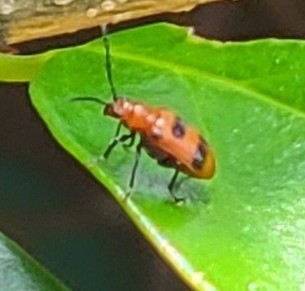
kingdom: Animalia
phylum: Arthropoda
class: Insecta
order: Coleoptera
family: Chrysomelidae
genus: Neolema
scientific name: Neolema sexpunctata
